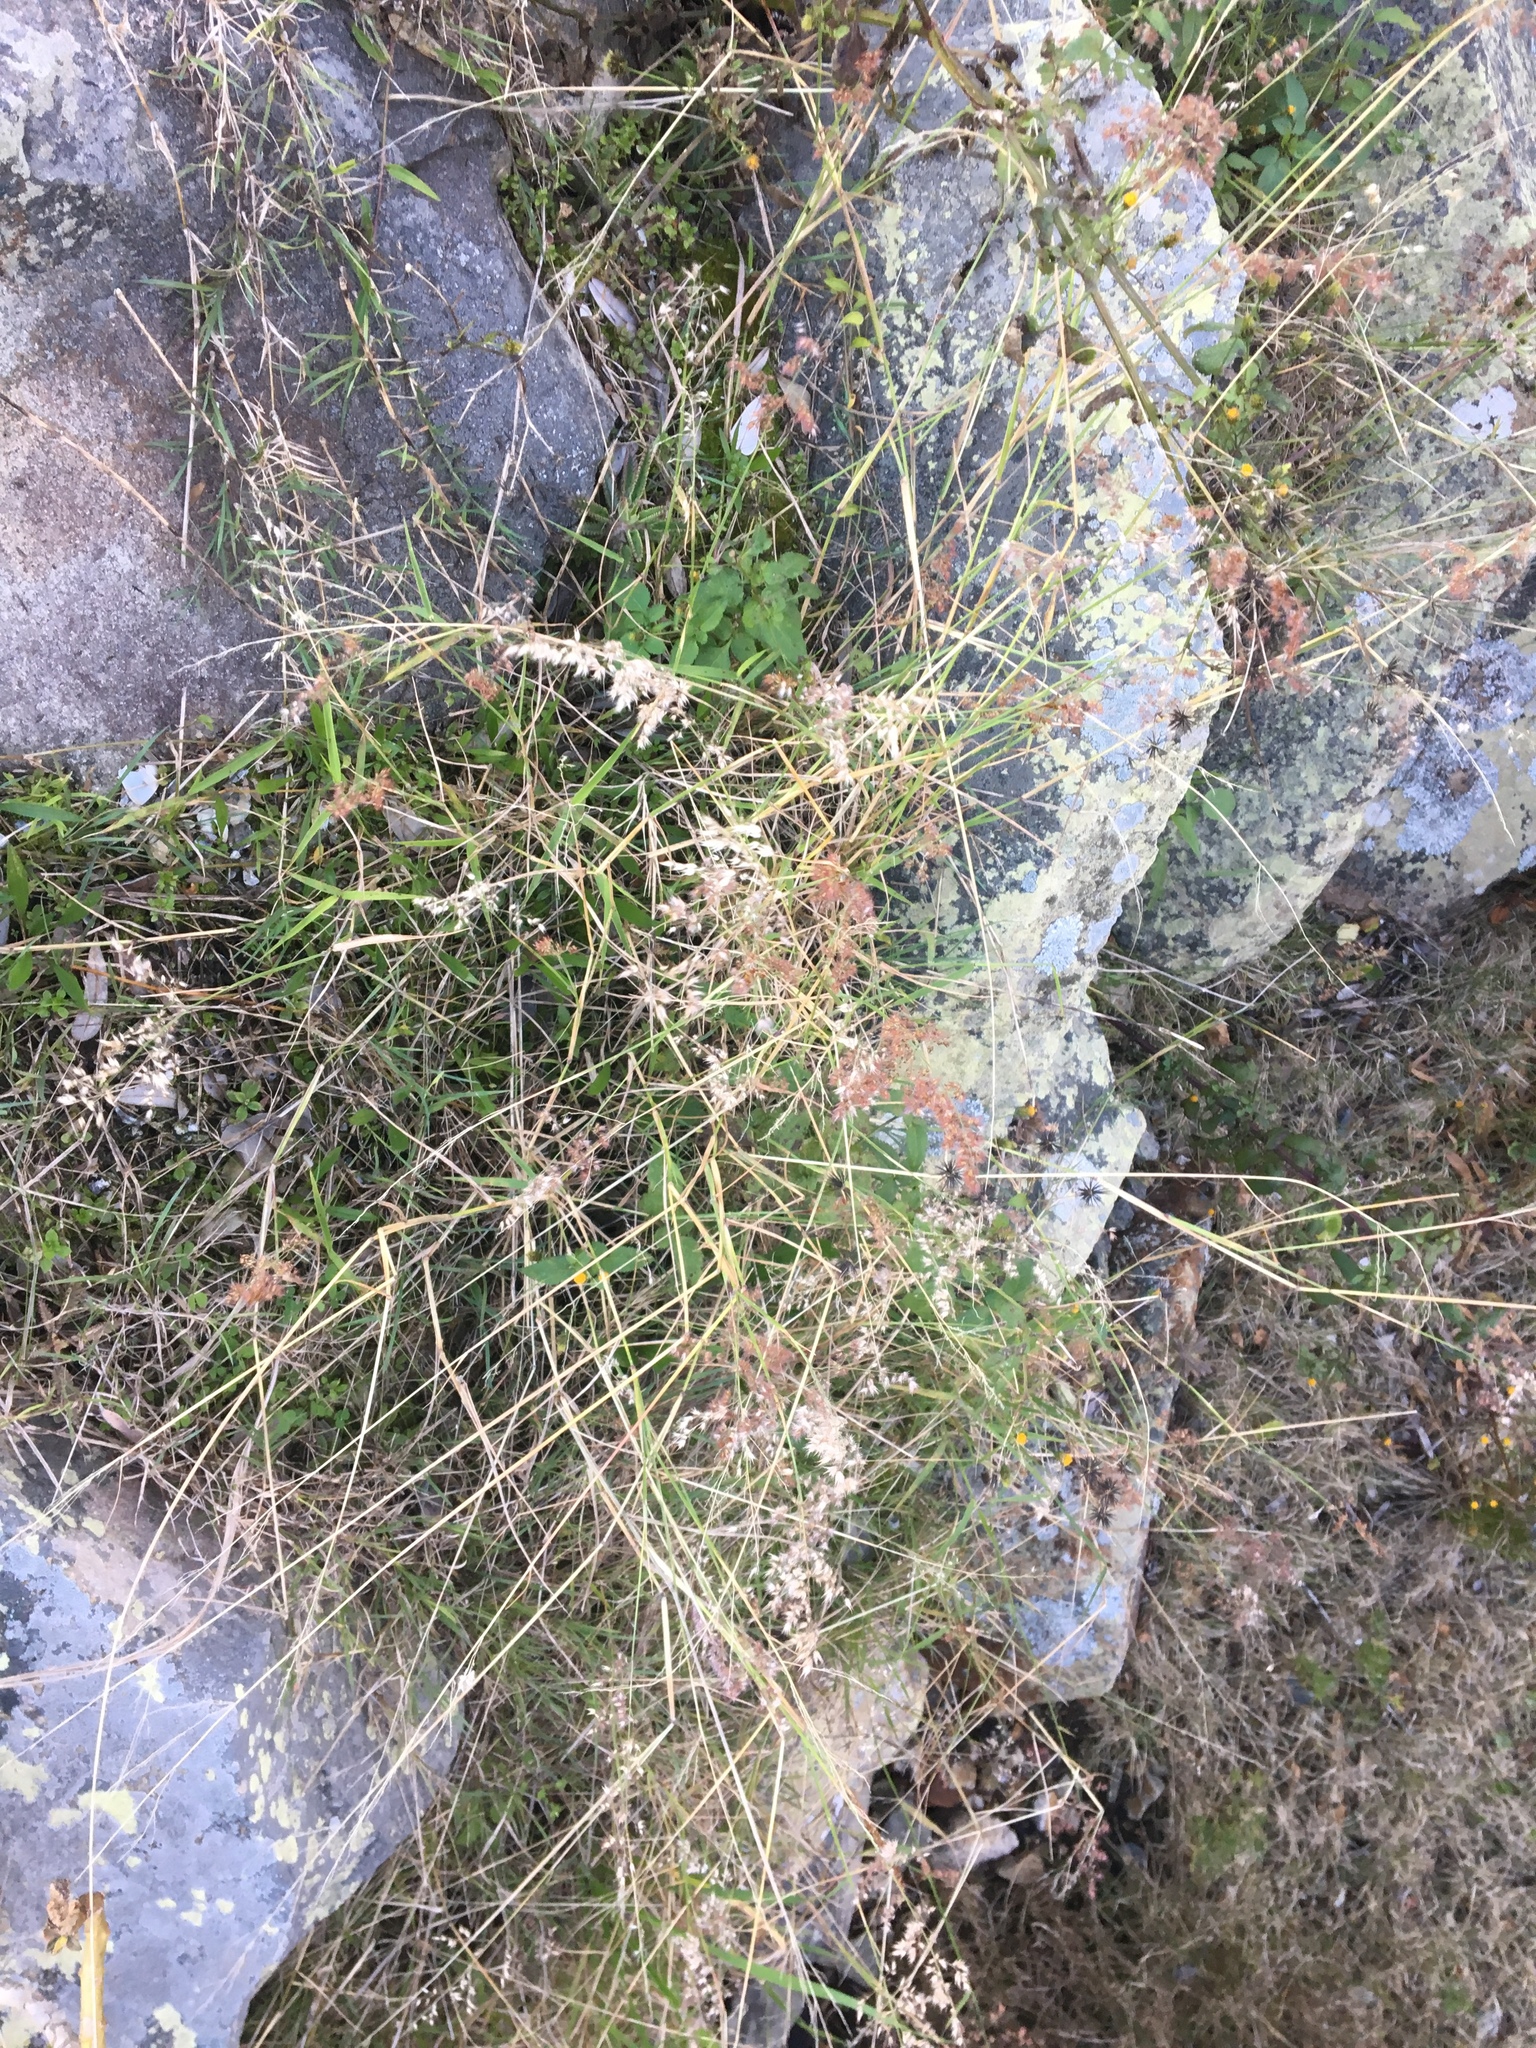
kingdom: Plantae
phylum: Tracheophyta
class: Liliopsida
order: Poales
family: Poaceae
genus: Melinis
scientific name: Melinis repens
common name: Rose natal grass
